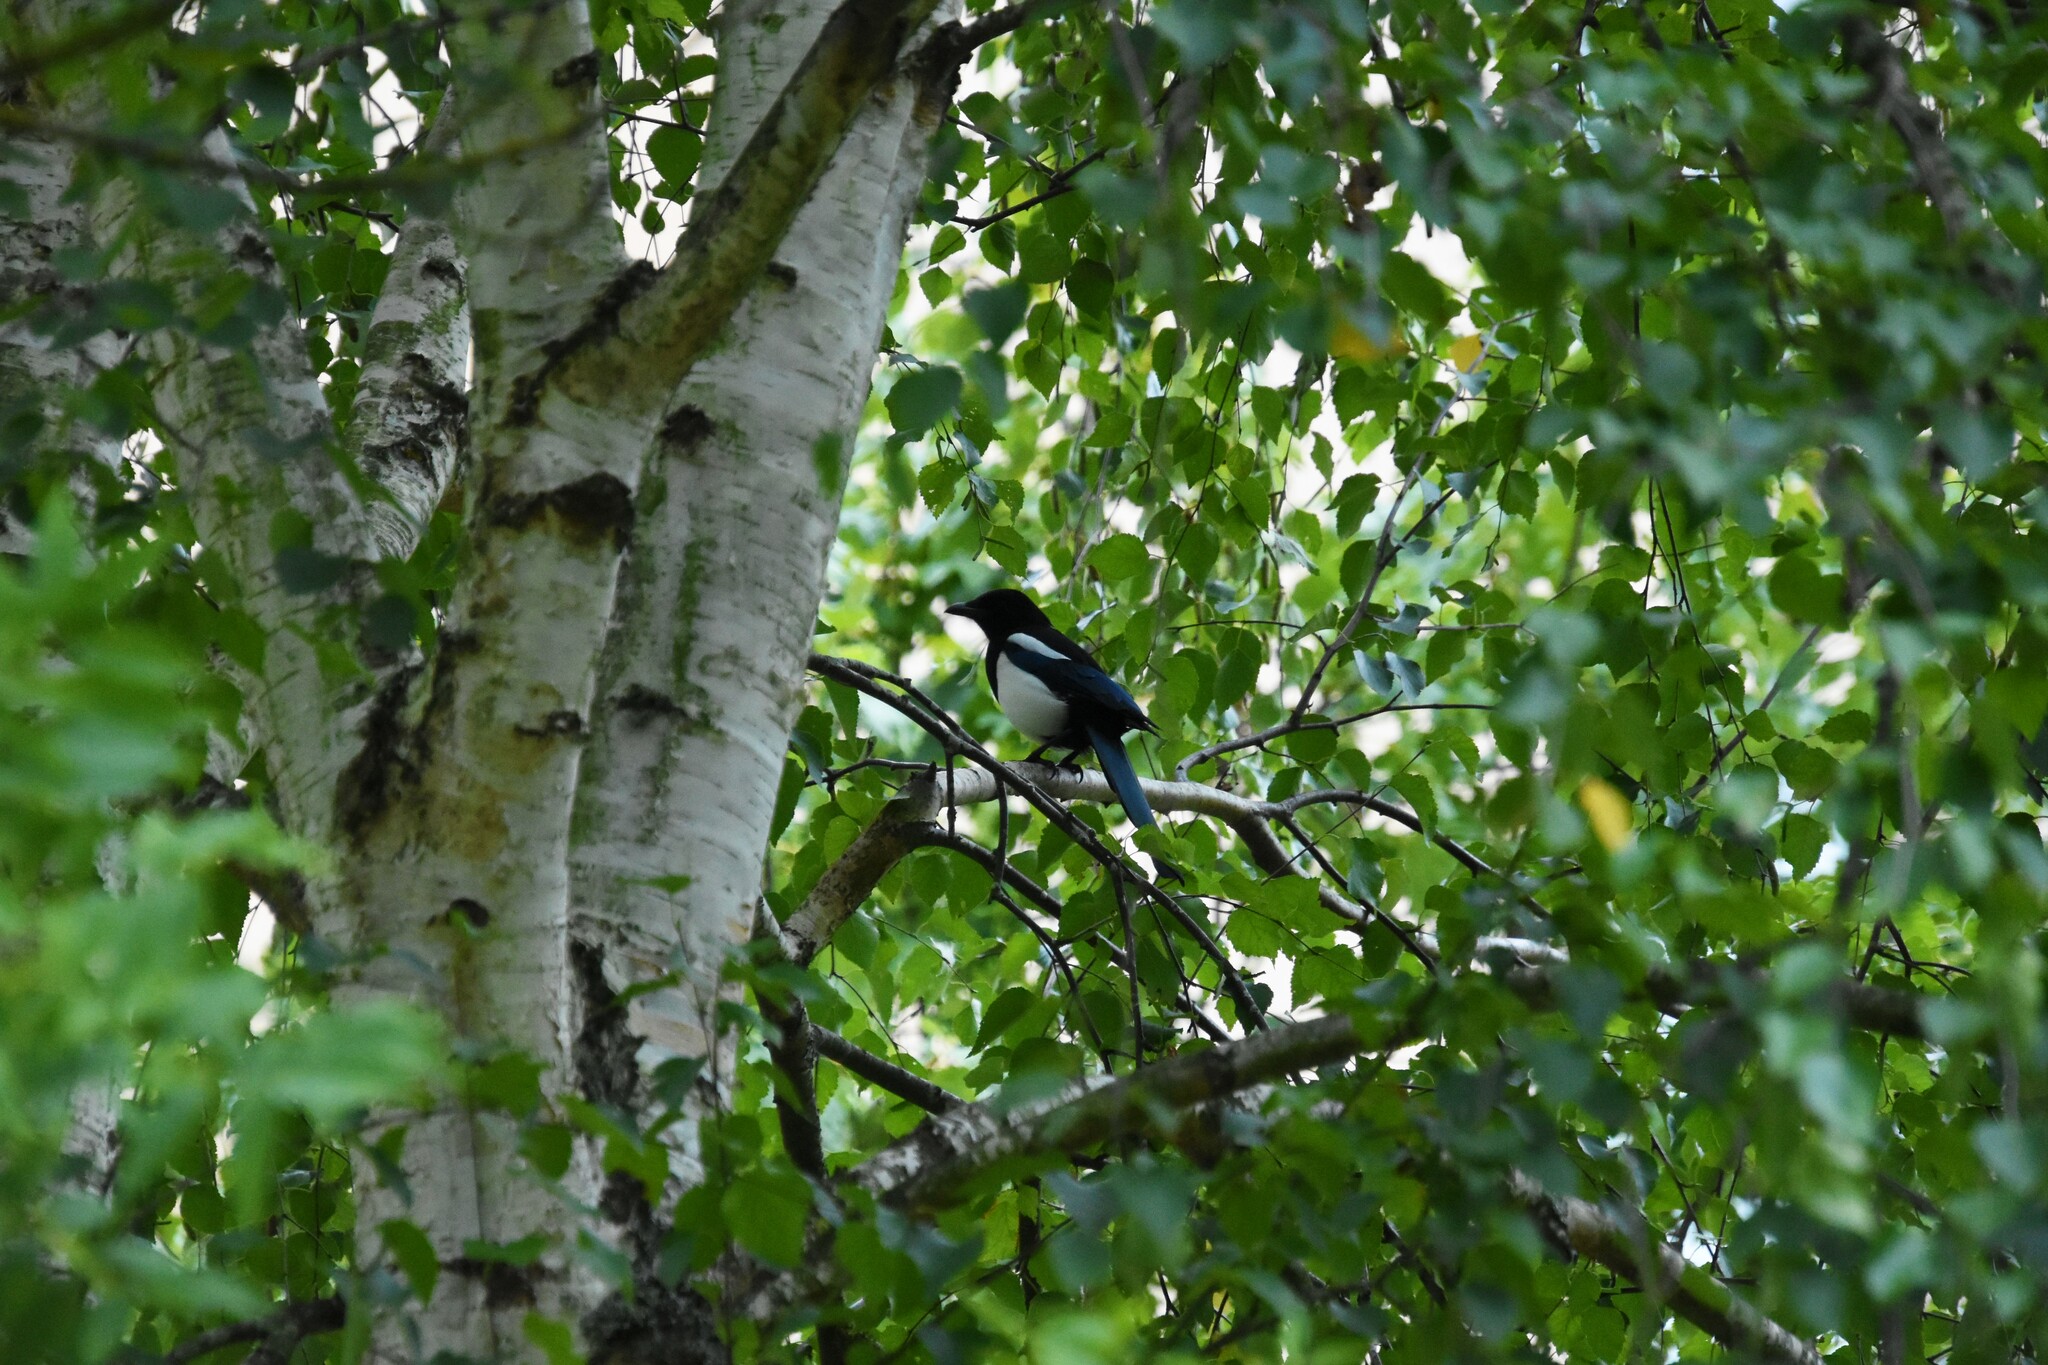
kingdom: Animalia
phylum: Chordata
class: Aves
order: Passeriformes
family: Corvidae
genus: Pica
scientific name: Pica pica
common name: Eurasian magpie
